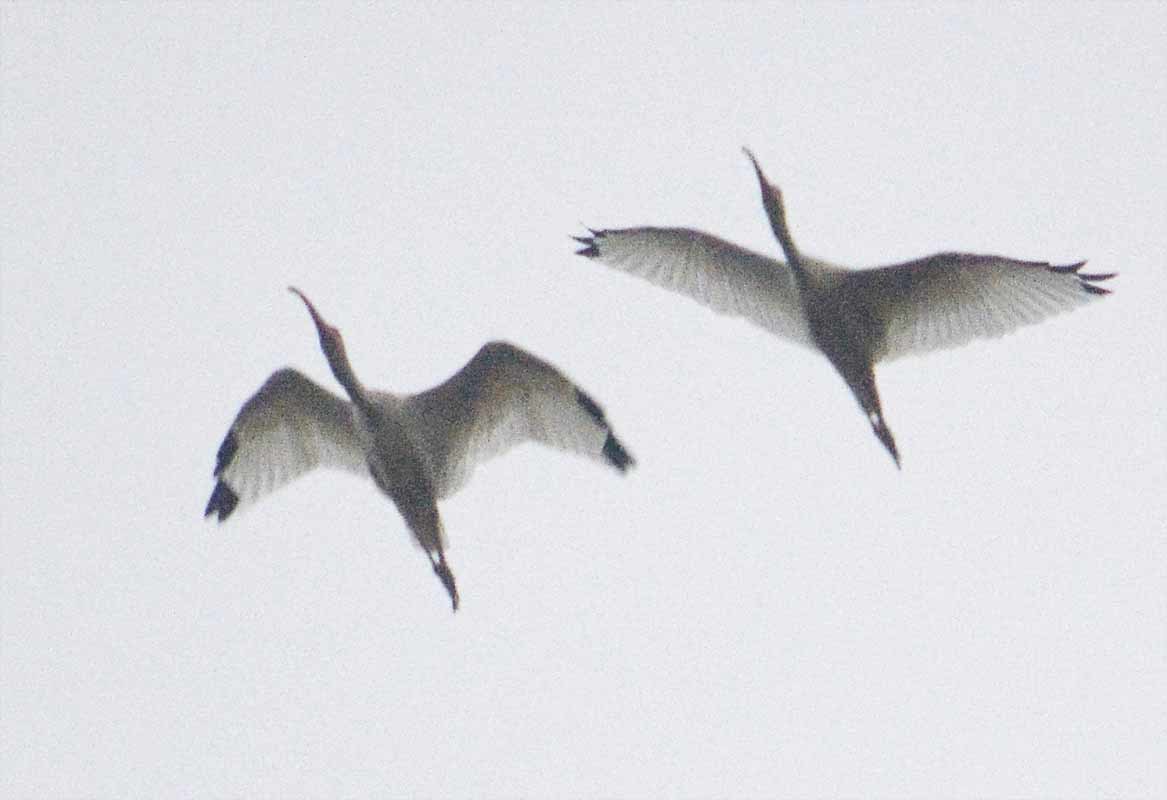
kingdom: Animalia
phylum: Chordata
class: Aves
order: Pelecaniformes
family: Threskiornithidae
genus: Eudocimus
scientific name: Eudocimus albus
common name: White ibis
